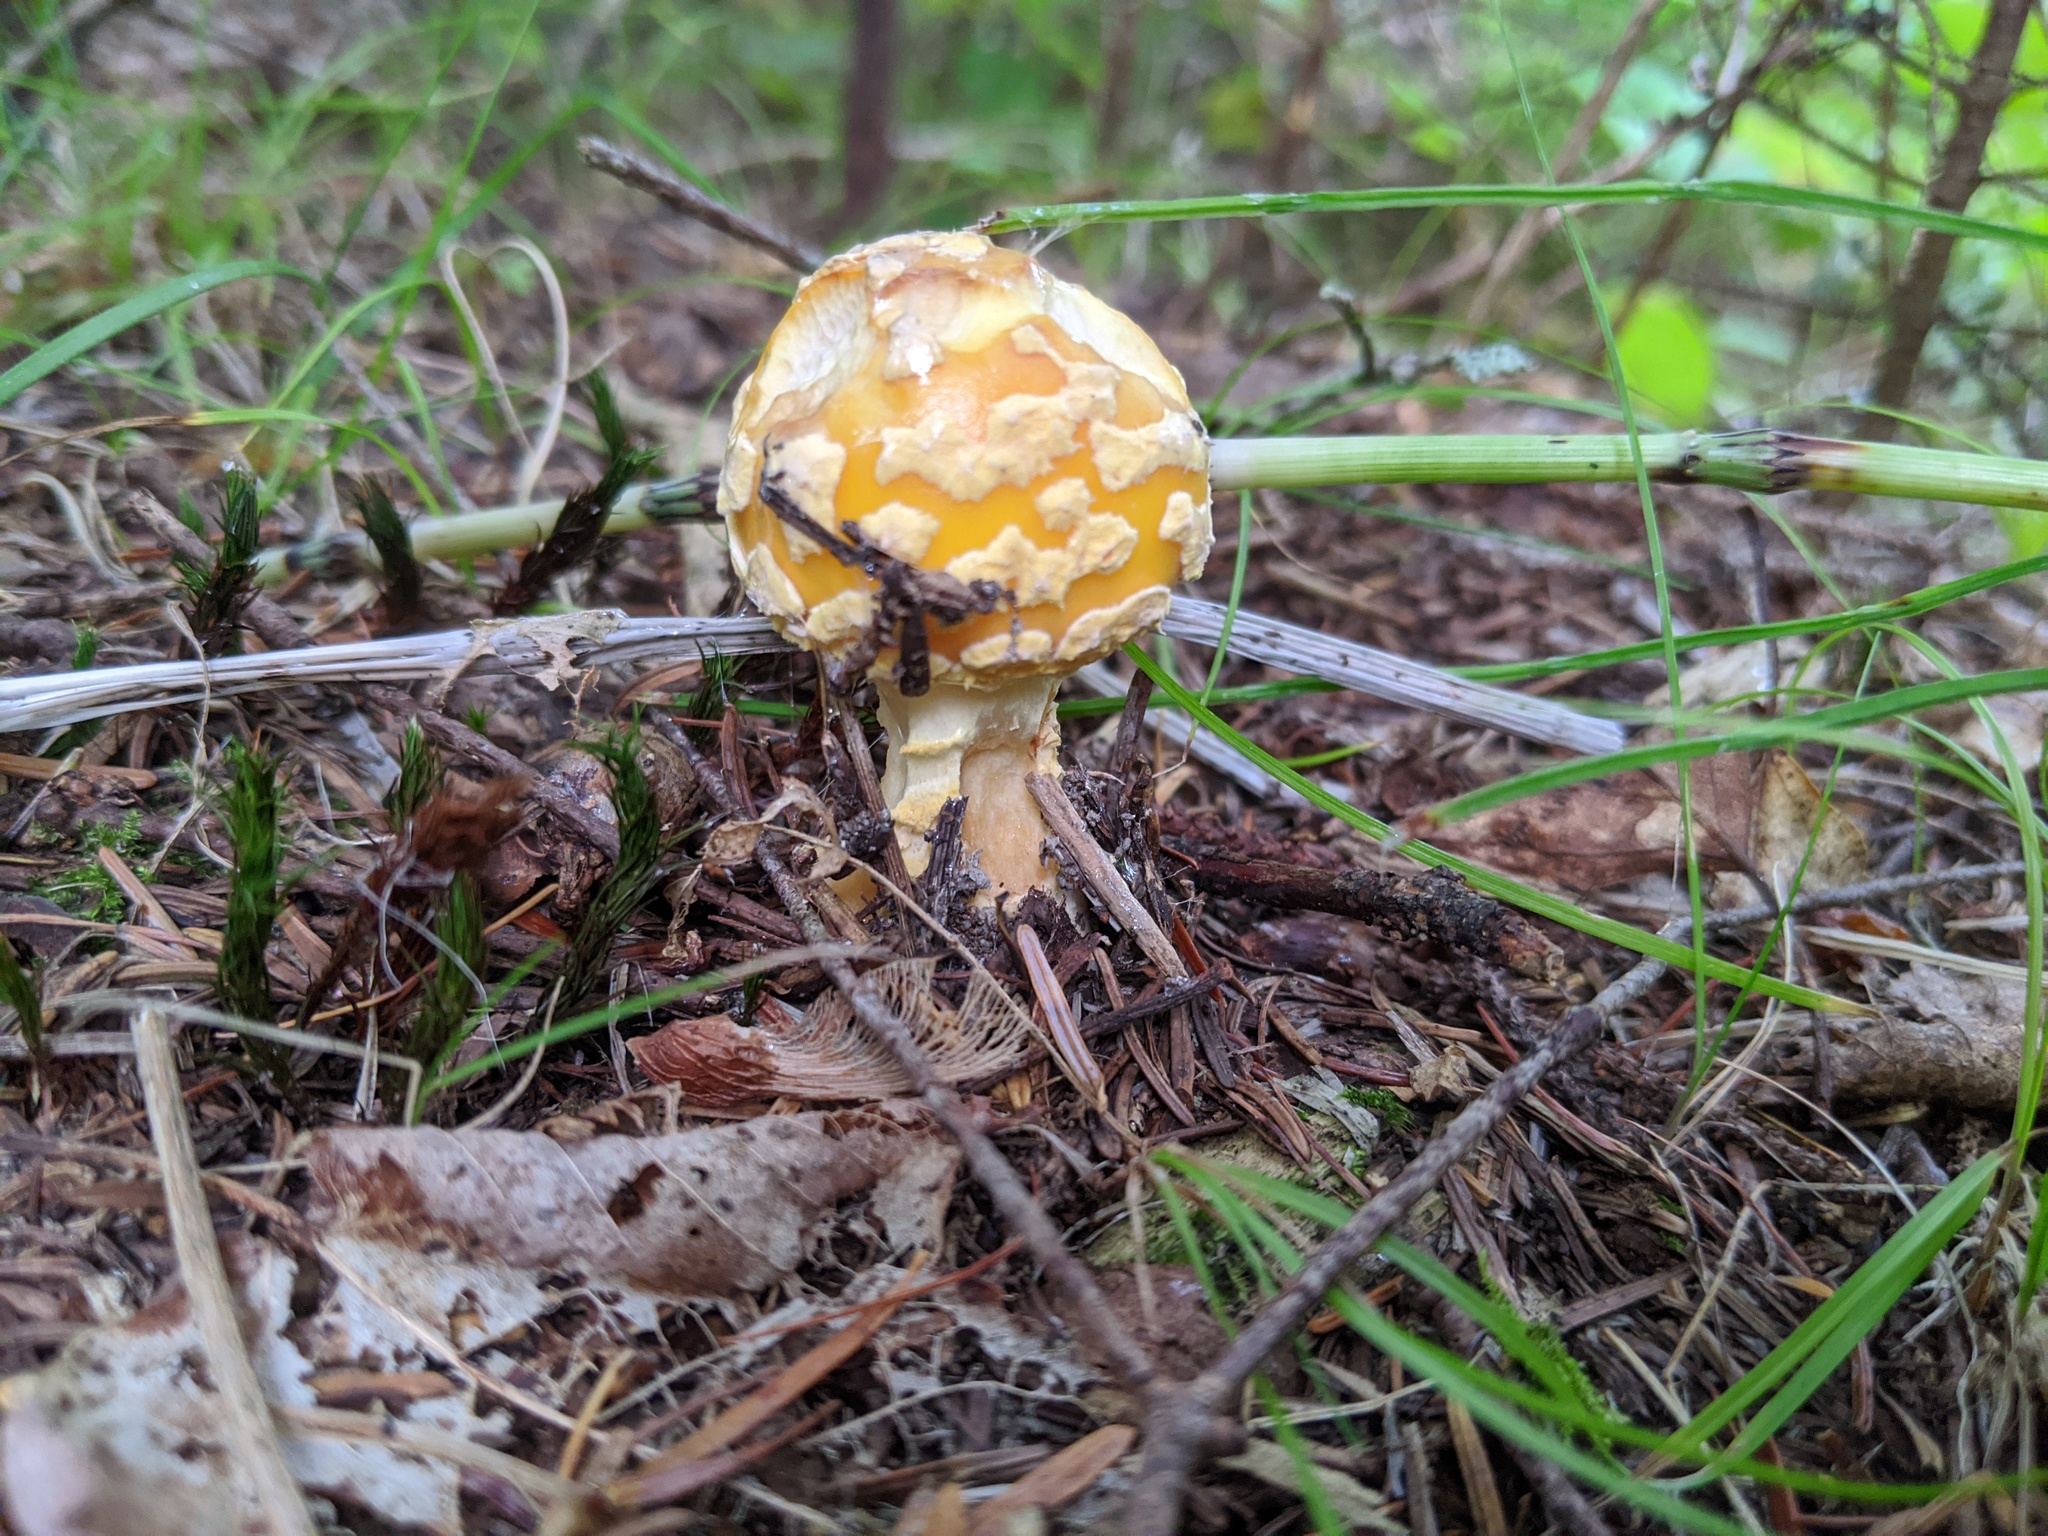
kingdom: Fungi
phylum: Basidiomycota
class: Agaricomycetes
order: Agaricales
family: Amanitaceae
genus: Amanita
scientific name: Amanita muscaria
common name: Fly agaric
